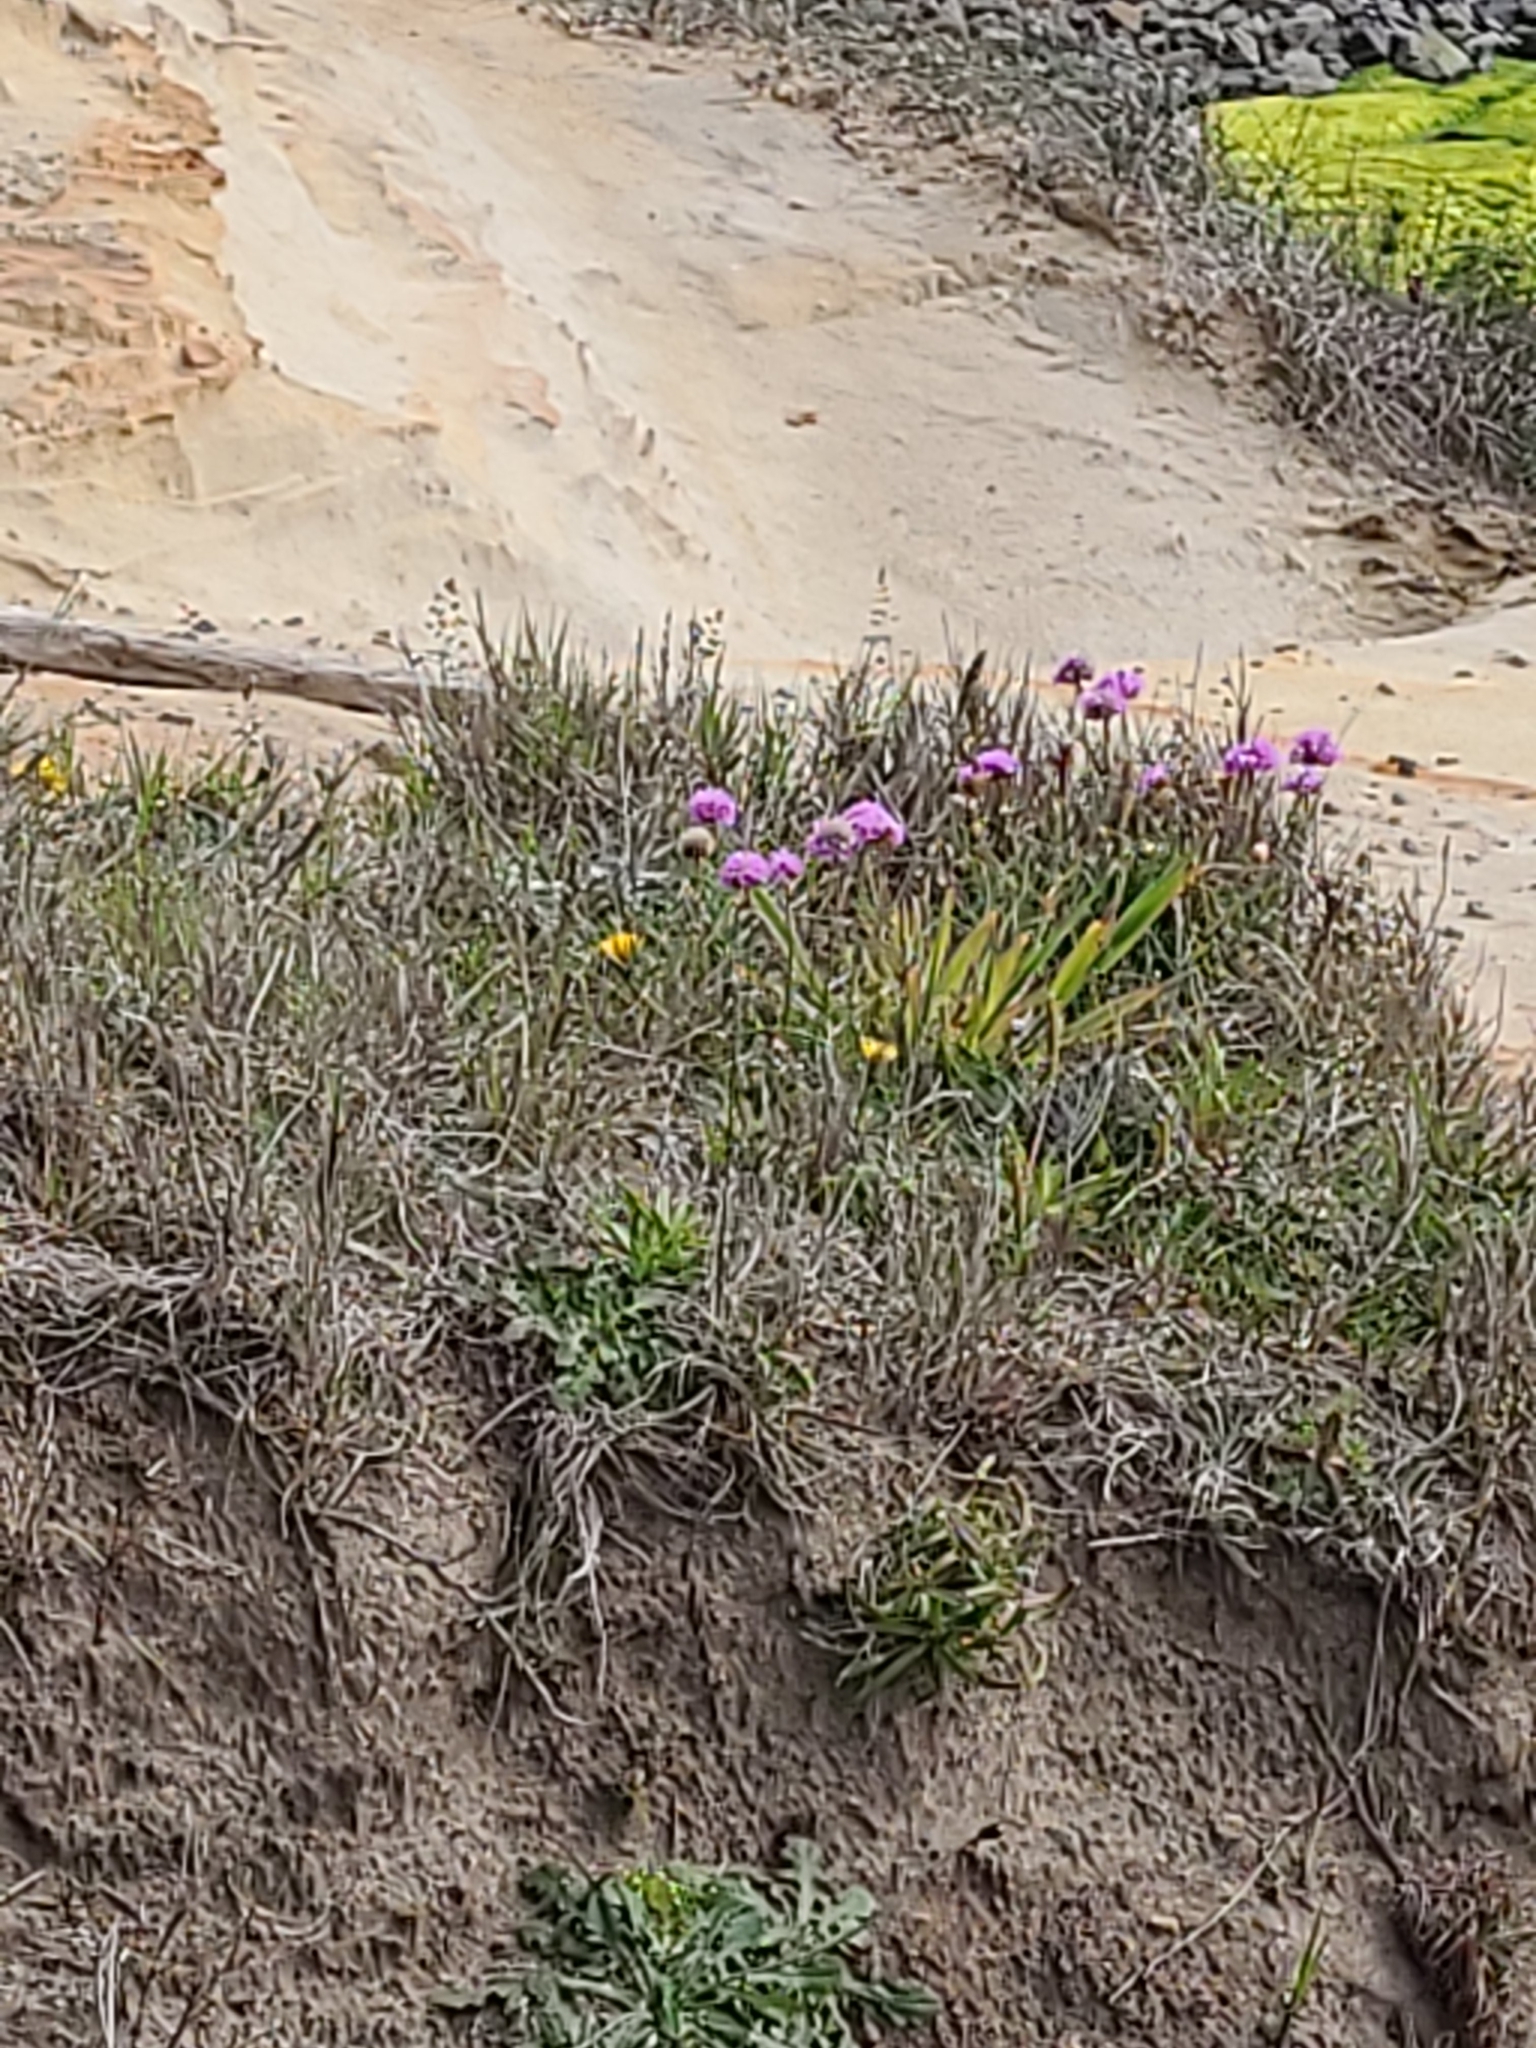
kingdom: Plantae
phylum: Tracheophyta
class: Magnoliopsida
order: Caryophyllales
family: Plumbaginaceae
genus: Armeria
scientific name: Armeria maritima
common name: Thrift
